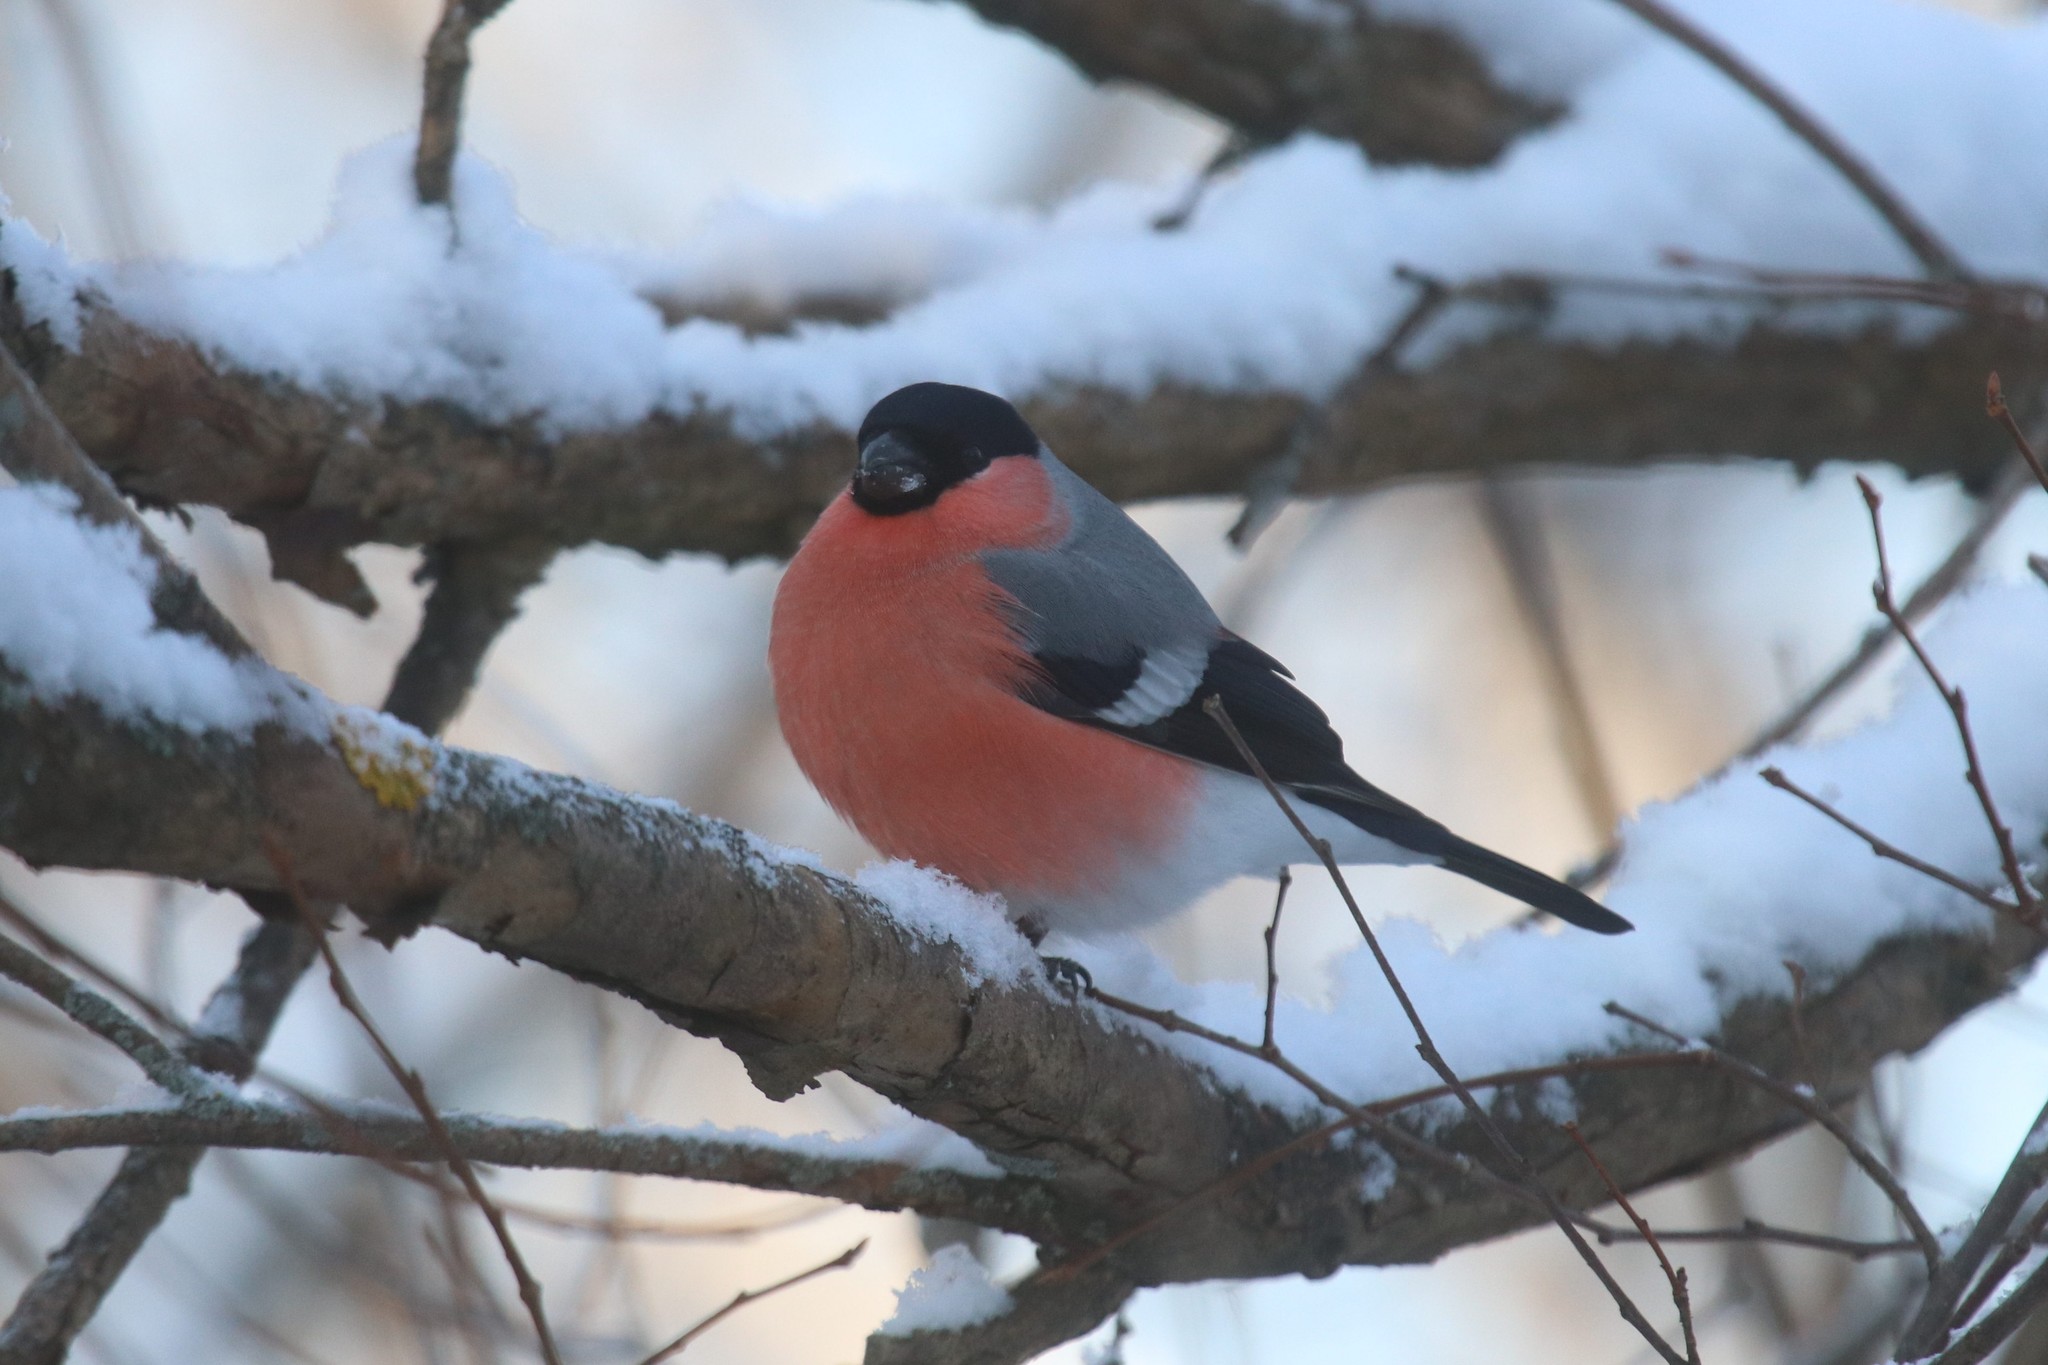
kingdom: Animalia
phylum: Chordata
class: Aves
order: Passeriformes
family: Fringillidae
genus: Pyrrhula
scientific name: Pyrrhula pyrrhula
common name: Eurasian bullfinch
